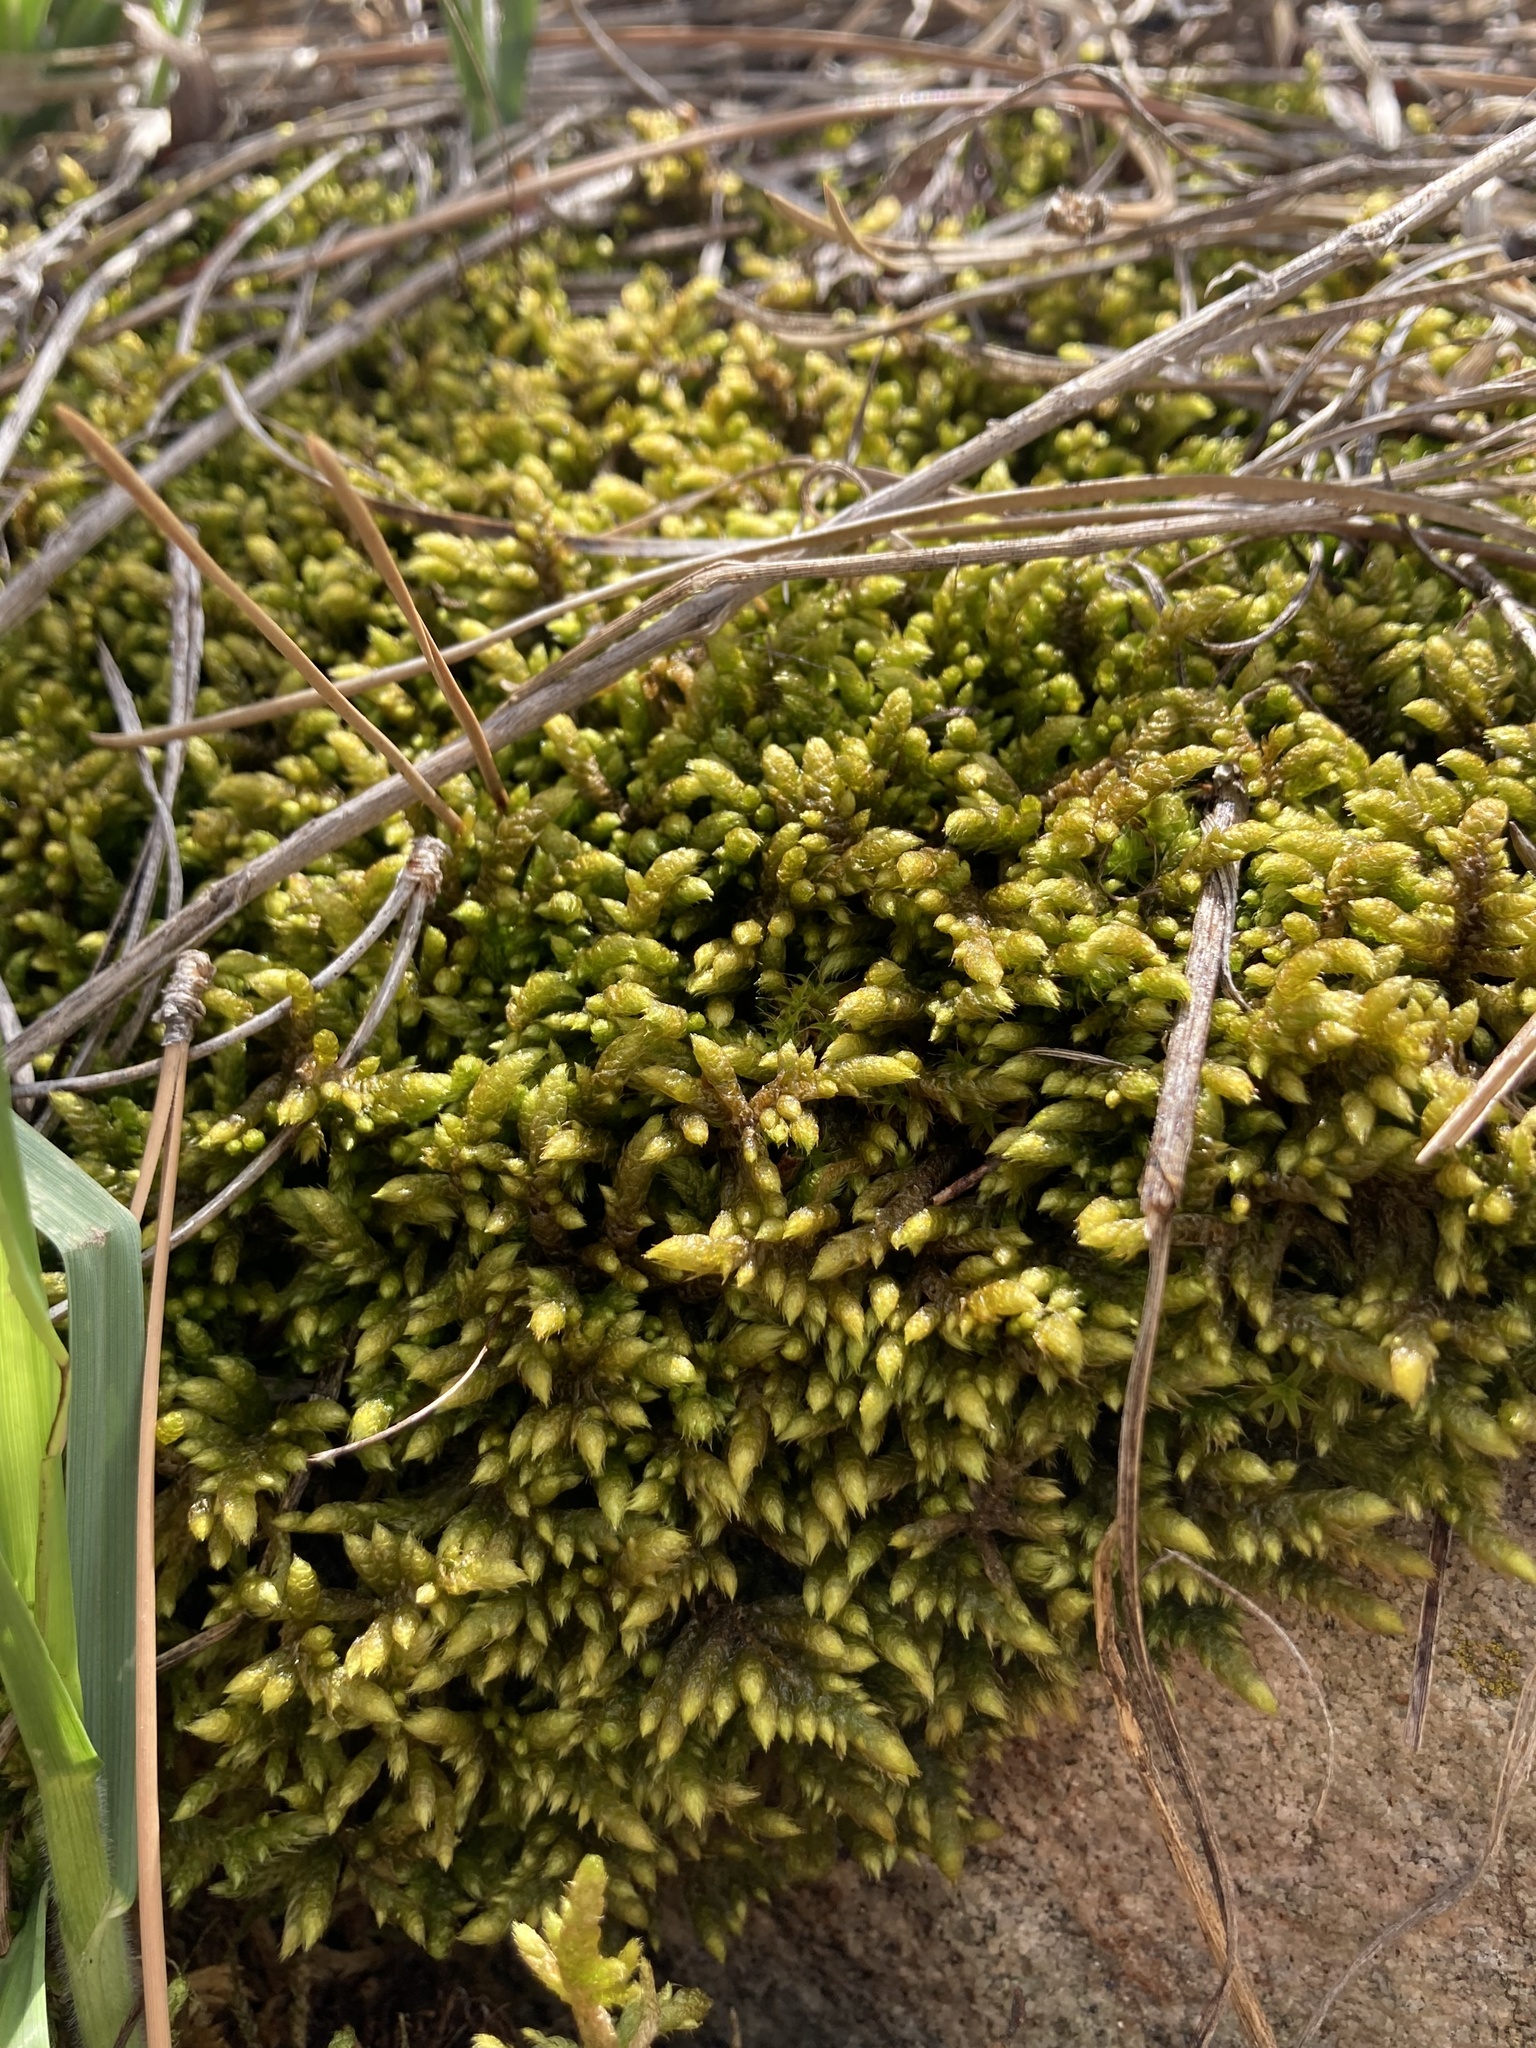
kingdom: Plantae
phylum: Bryophyta
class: Bryopsida
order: Hypnales
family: Rhytidiaceae
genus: Rhytidium
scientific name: Rhytidium rugosum
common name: Wrinkle-leaved moss
